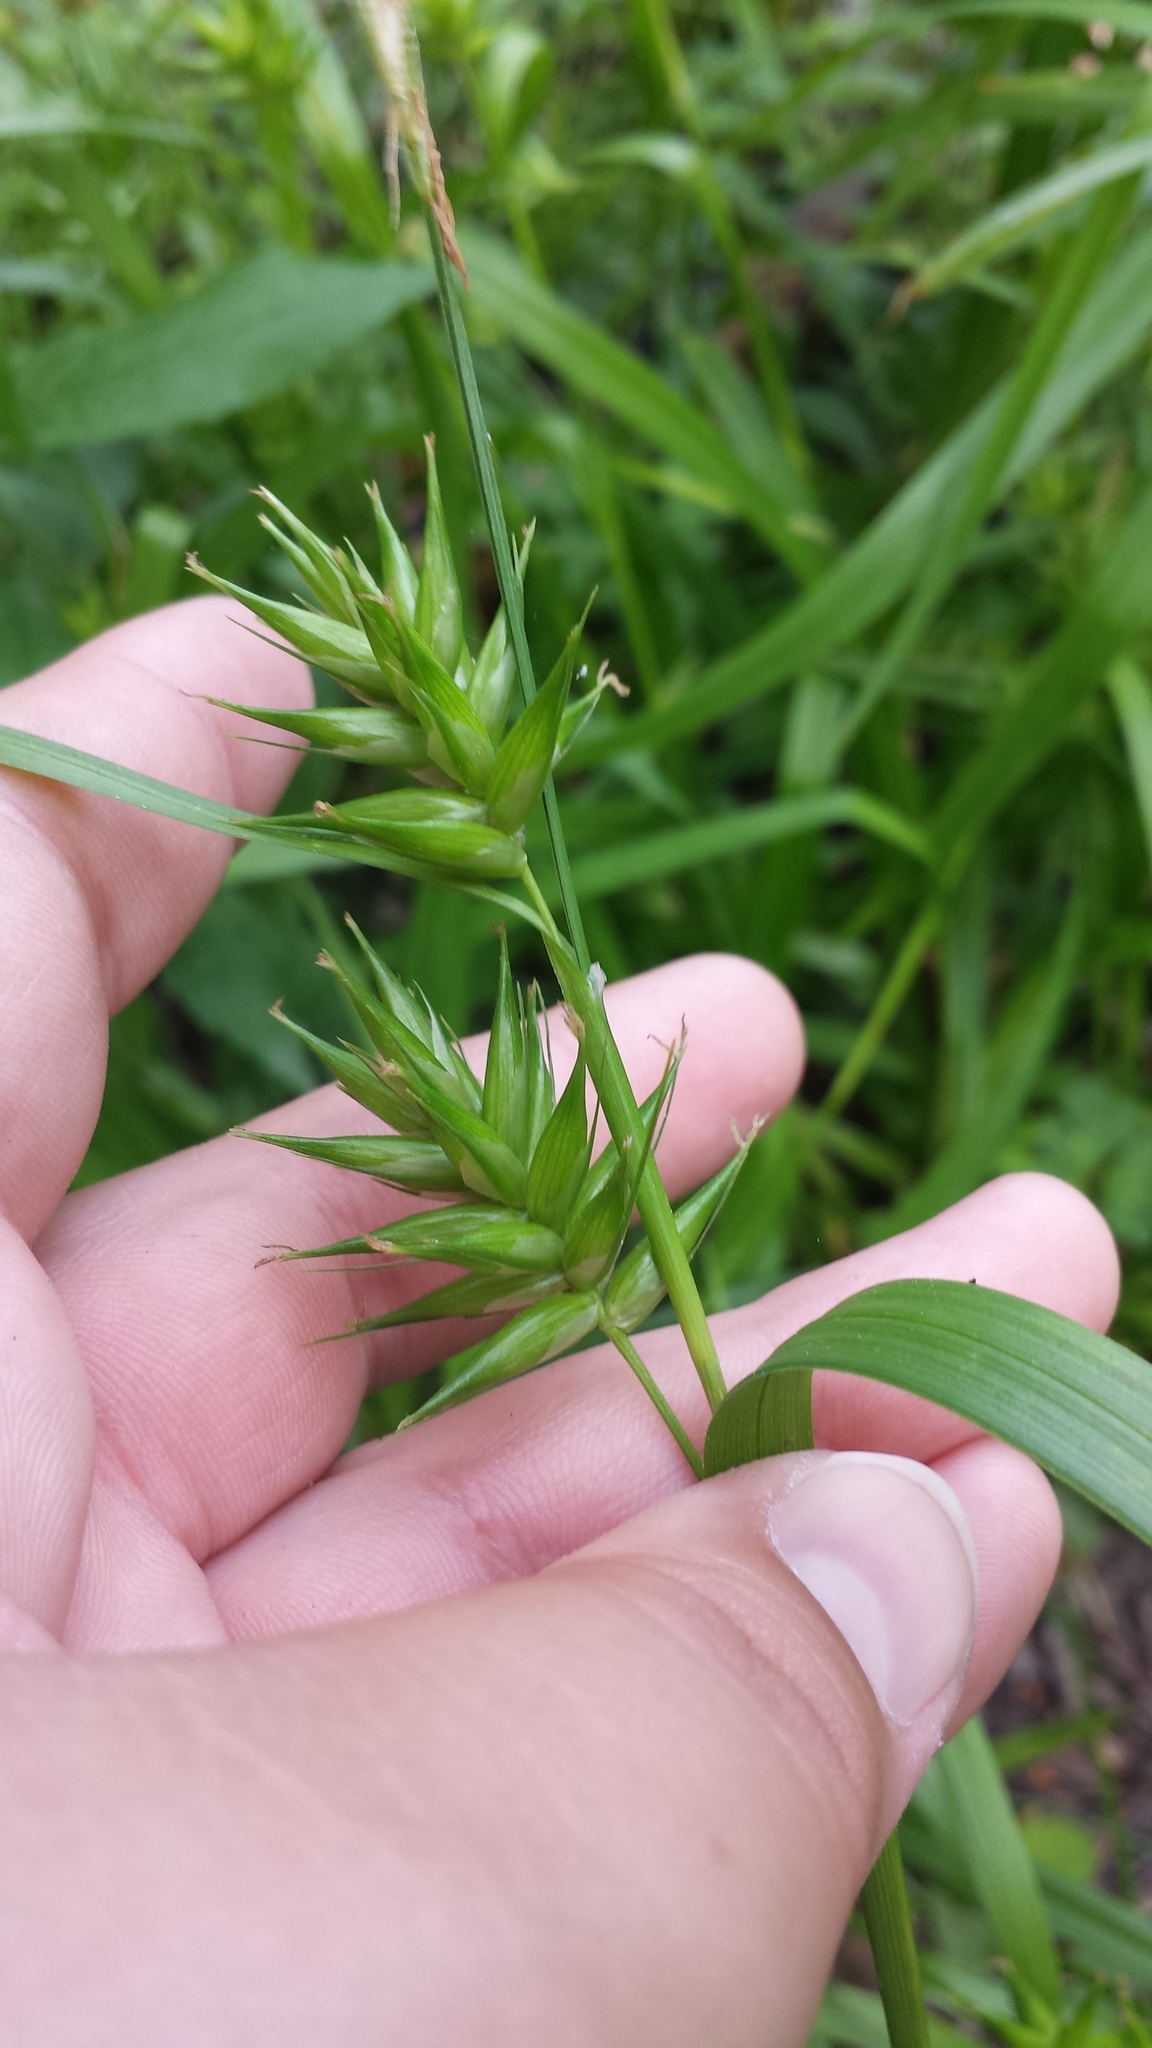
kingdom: Plantae
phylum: Tracheophyta
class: Liliopsida
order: Poales
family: Cyperaceae
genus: Carex
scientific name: Carex folliculata
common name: Northern long sedge
